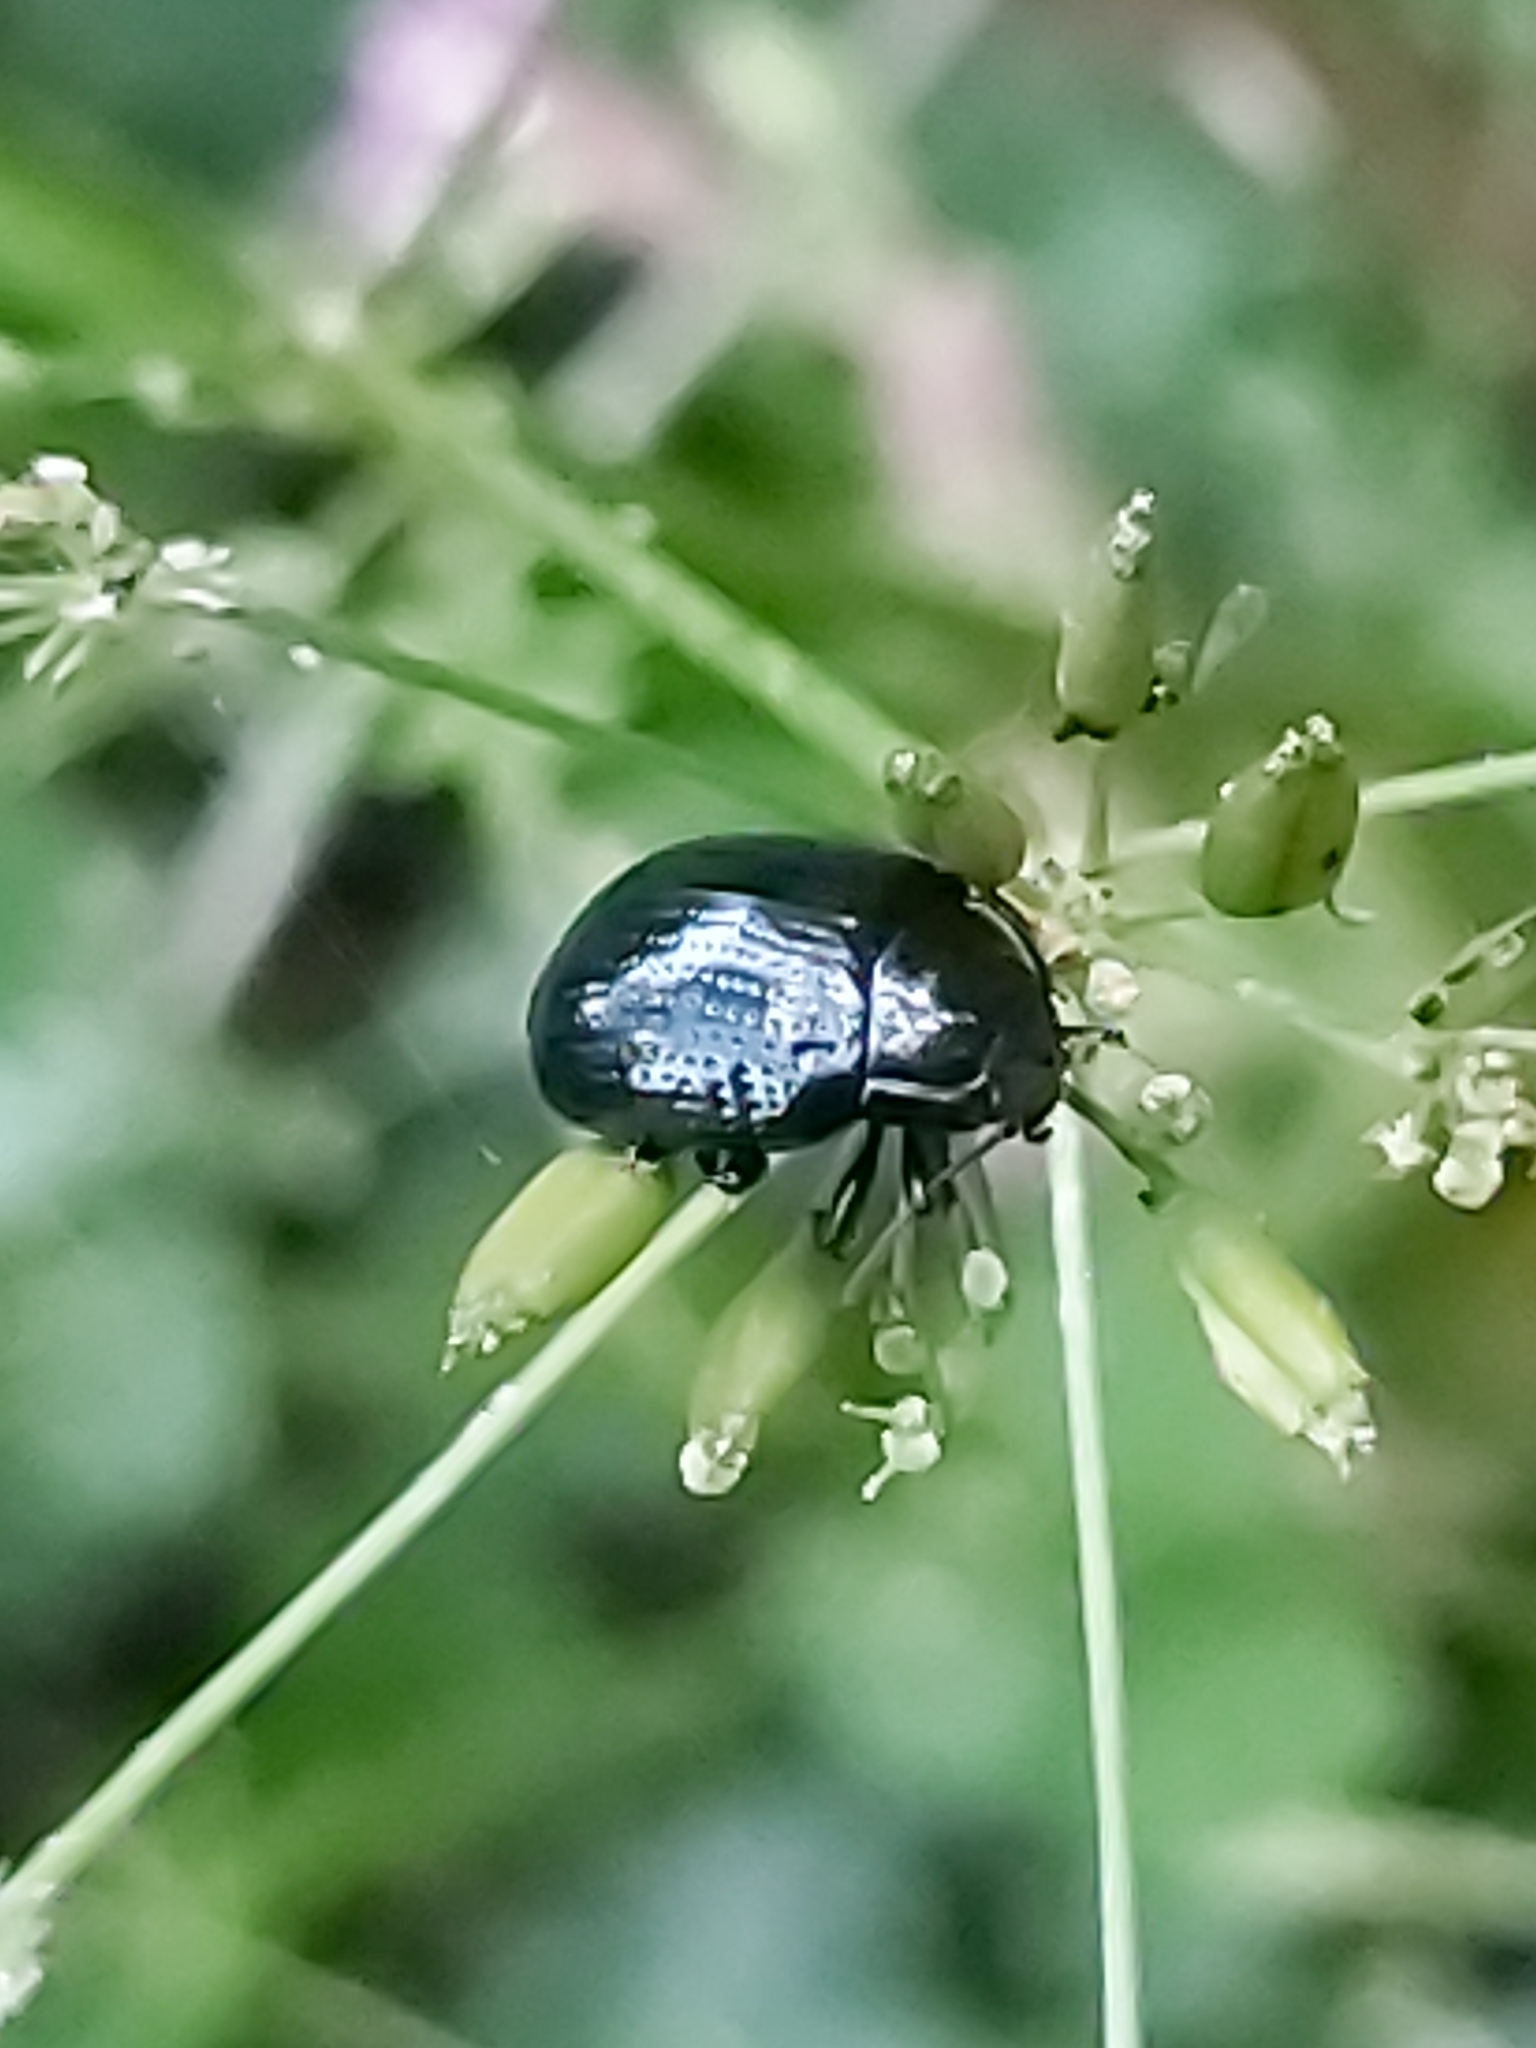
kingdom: Animalia
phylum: Arthropoda
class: Insecta
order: Coleoptera
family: Chrysomelidae
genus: Chrysolina
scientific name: Chrysolina oricalcia
